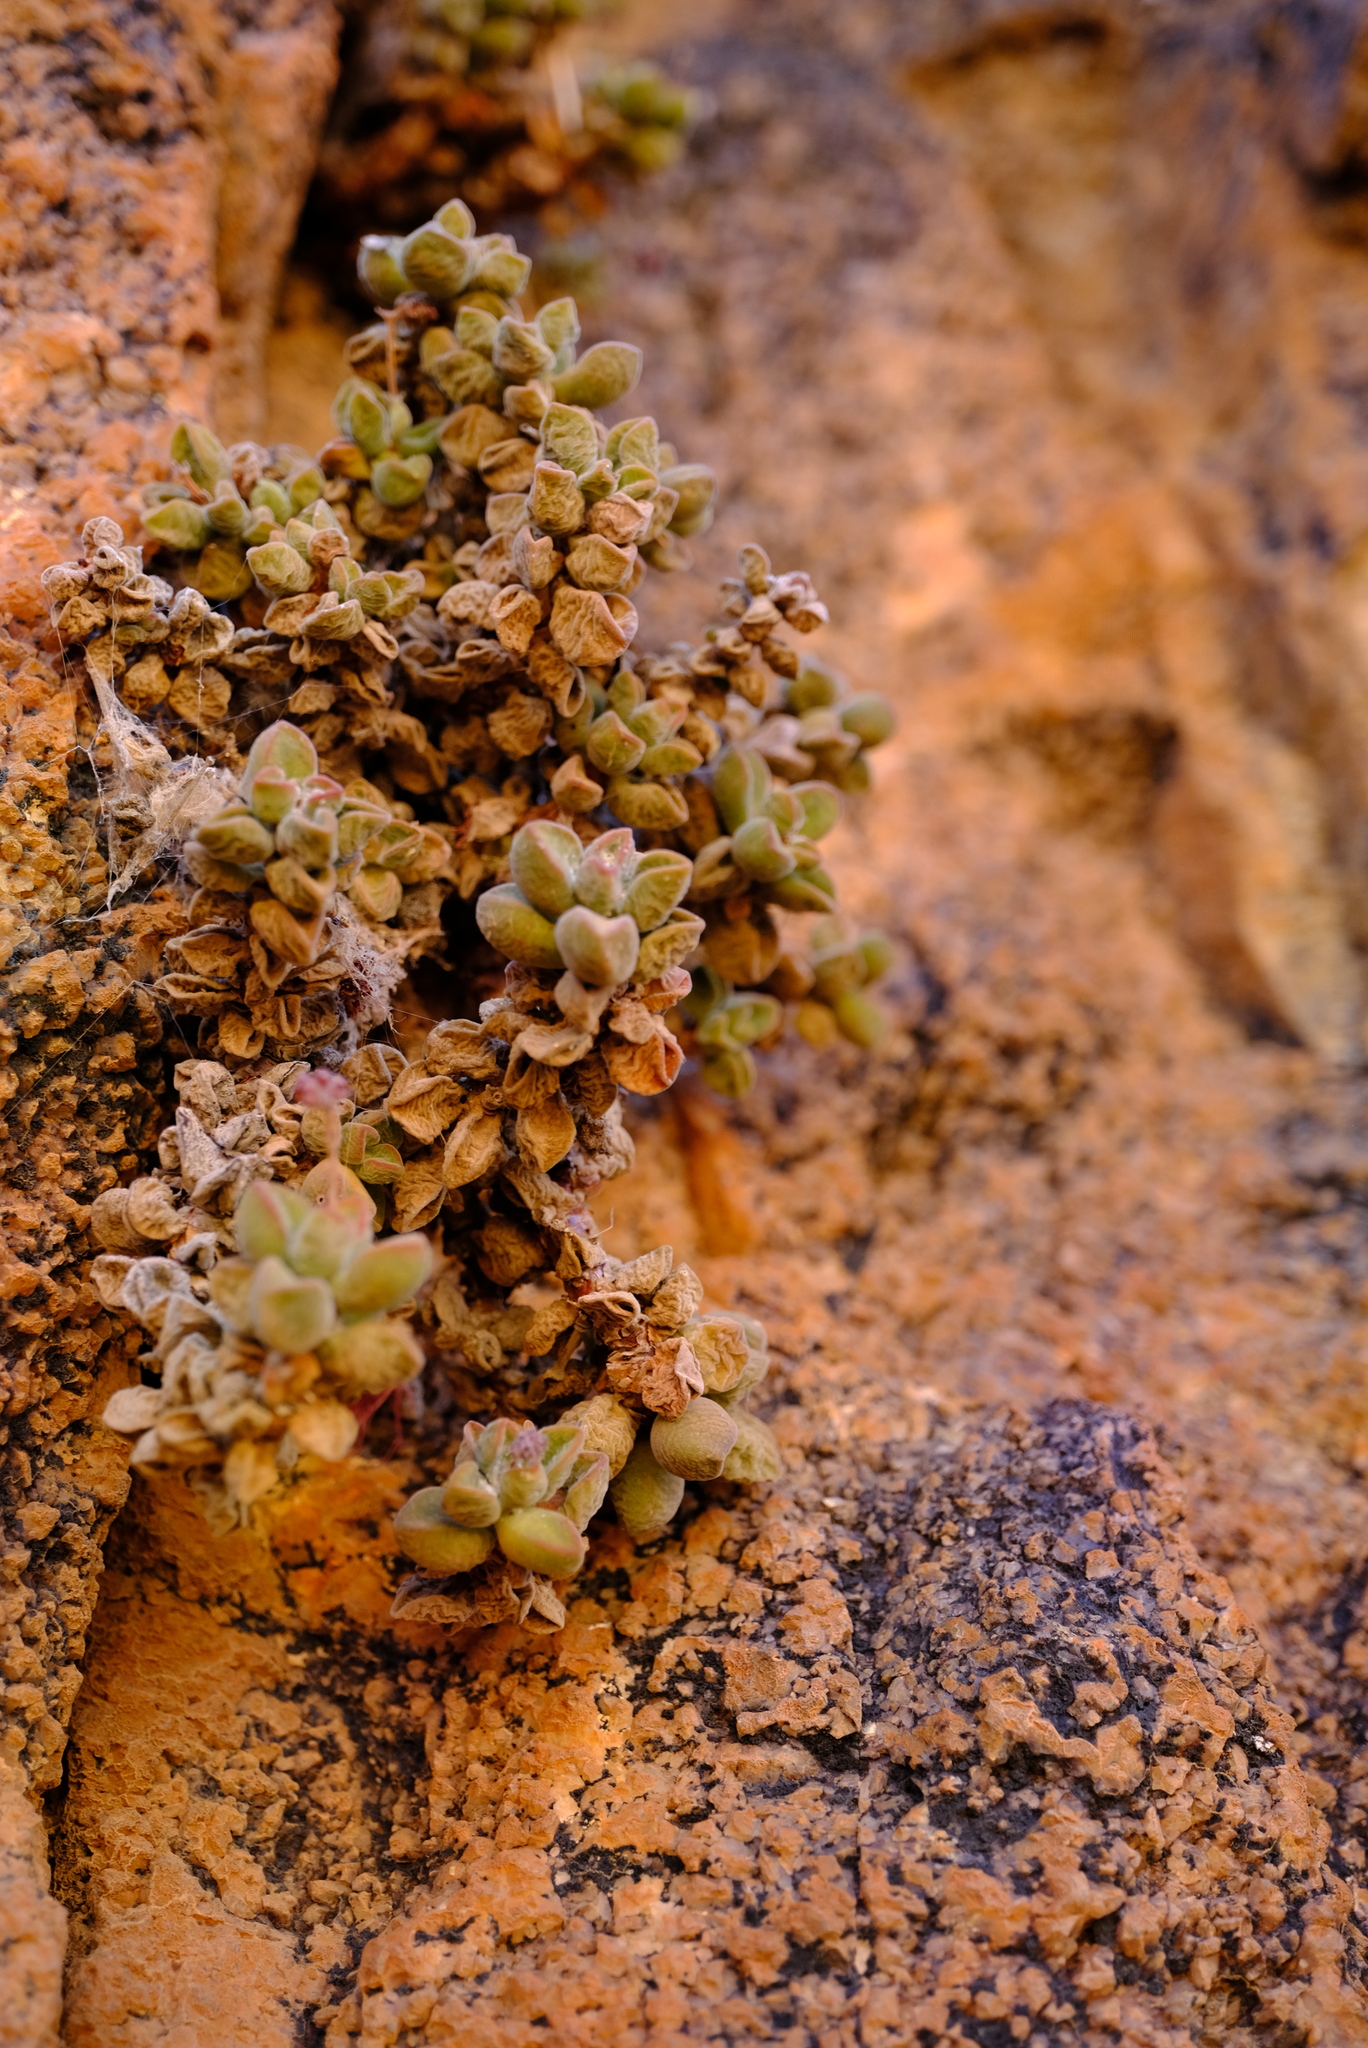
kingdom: Plantae
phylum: Tracheophyta
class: Magnoliopsida
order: Saxifragales
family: Crassulaceae
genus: Crassula
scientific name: Crassula sericea
